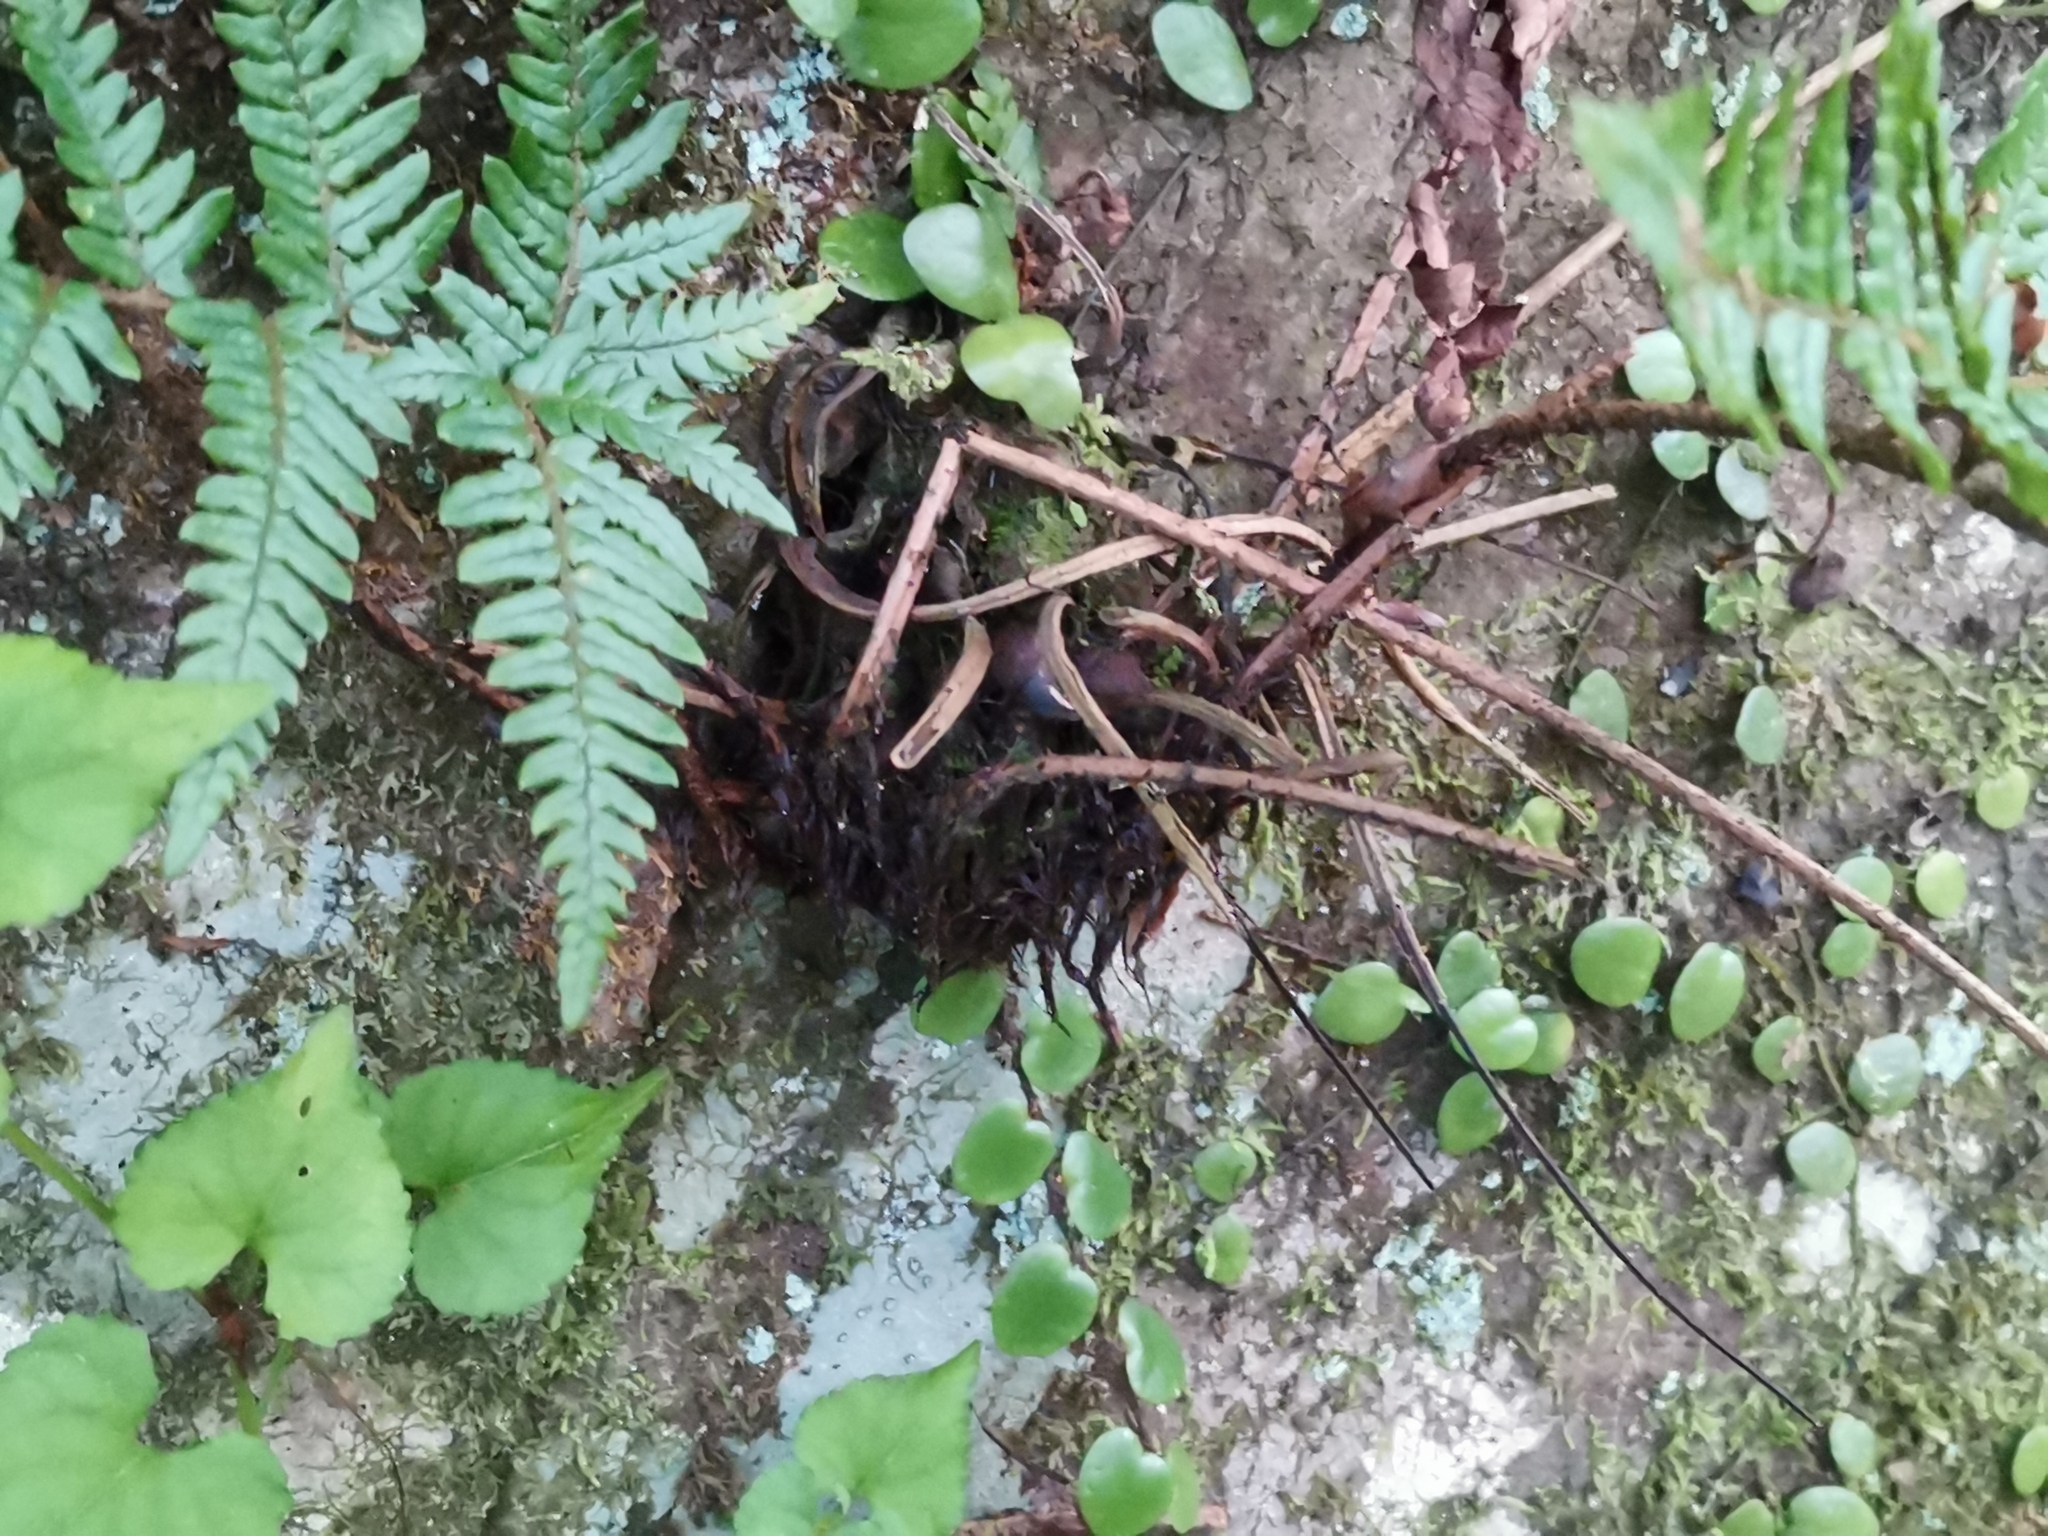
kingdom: Plantae
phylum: Tracheophyta
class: Polypodiopsida
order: Polypodiales
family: Dryopteridaceae
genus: Dryopteris
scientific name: Dryopteris bissetiana
